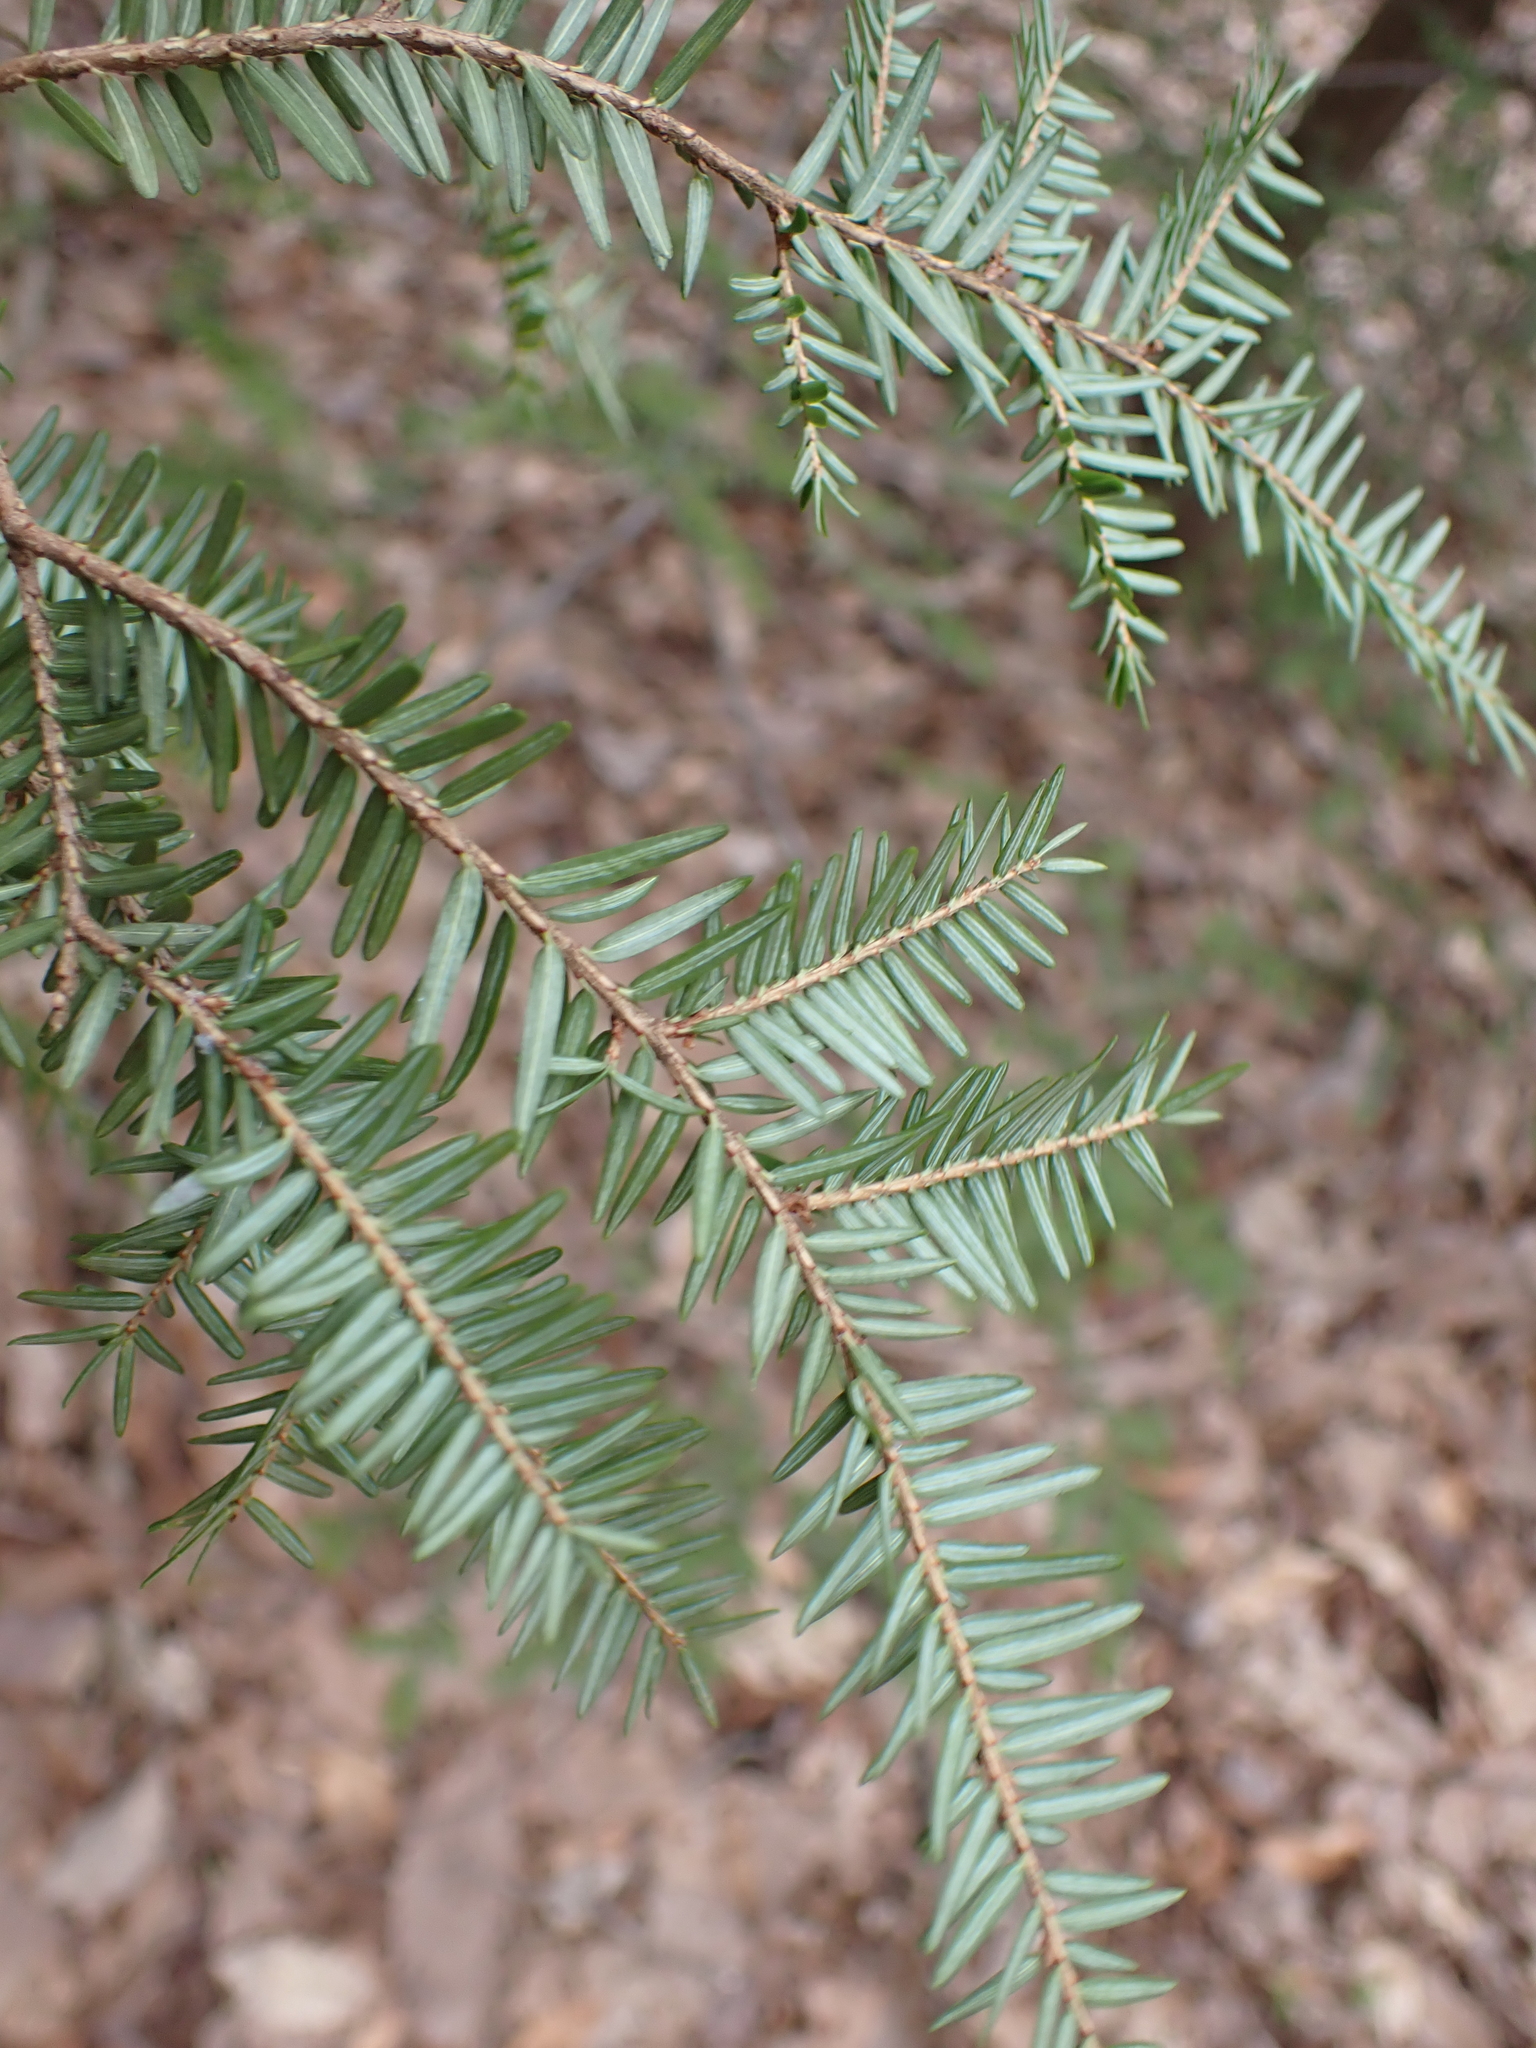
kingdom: Plantae
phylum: Tracheophyta
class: Pinopsida
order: Pinales
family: Pinaceae
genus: Tsuga
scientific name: Tsuga canadensis
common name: Eastern hemlock
